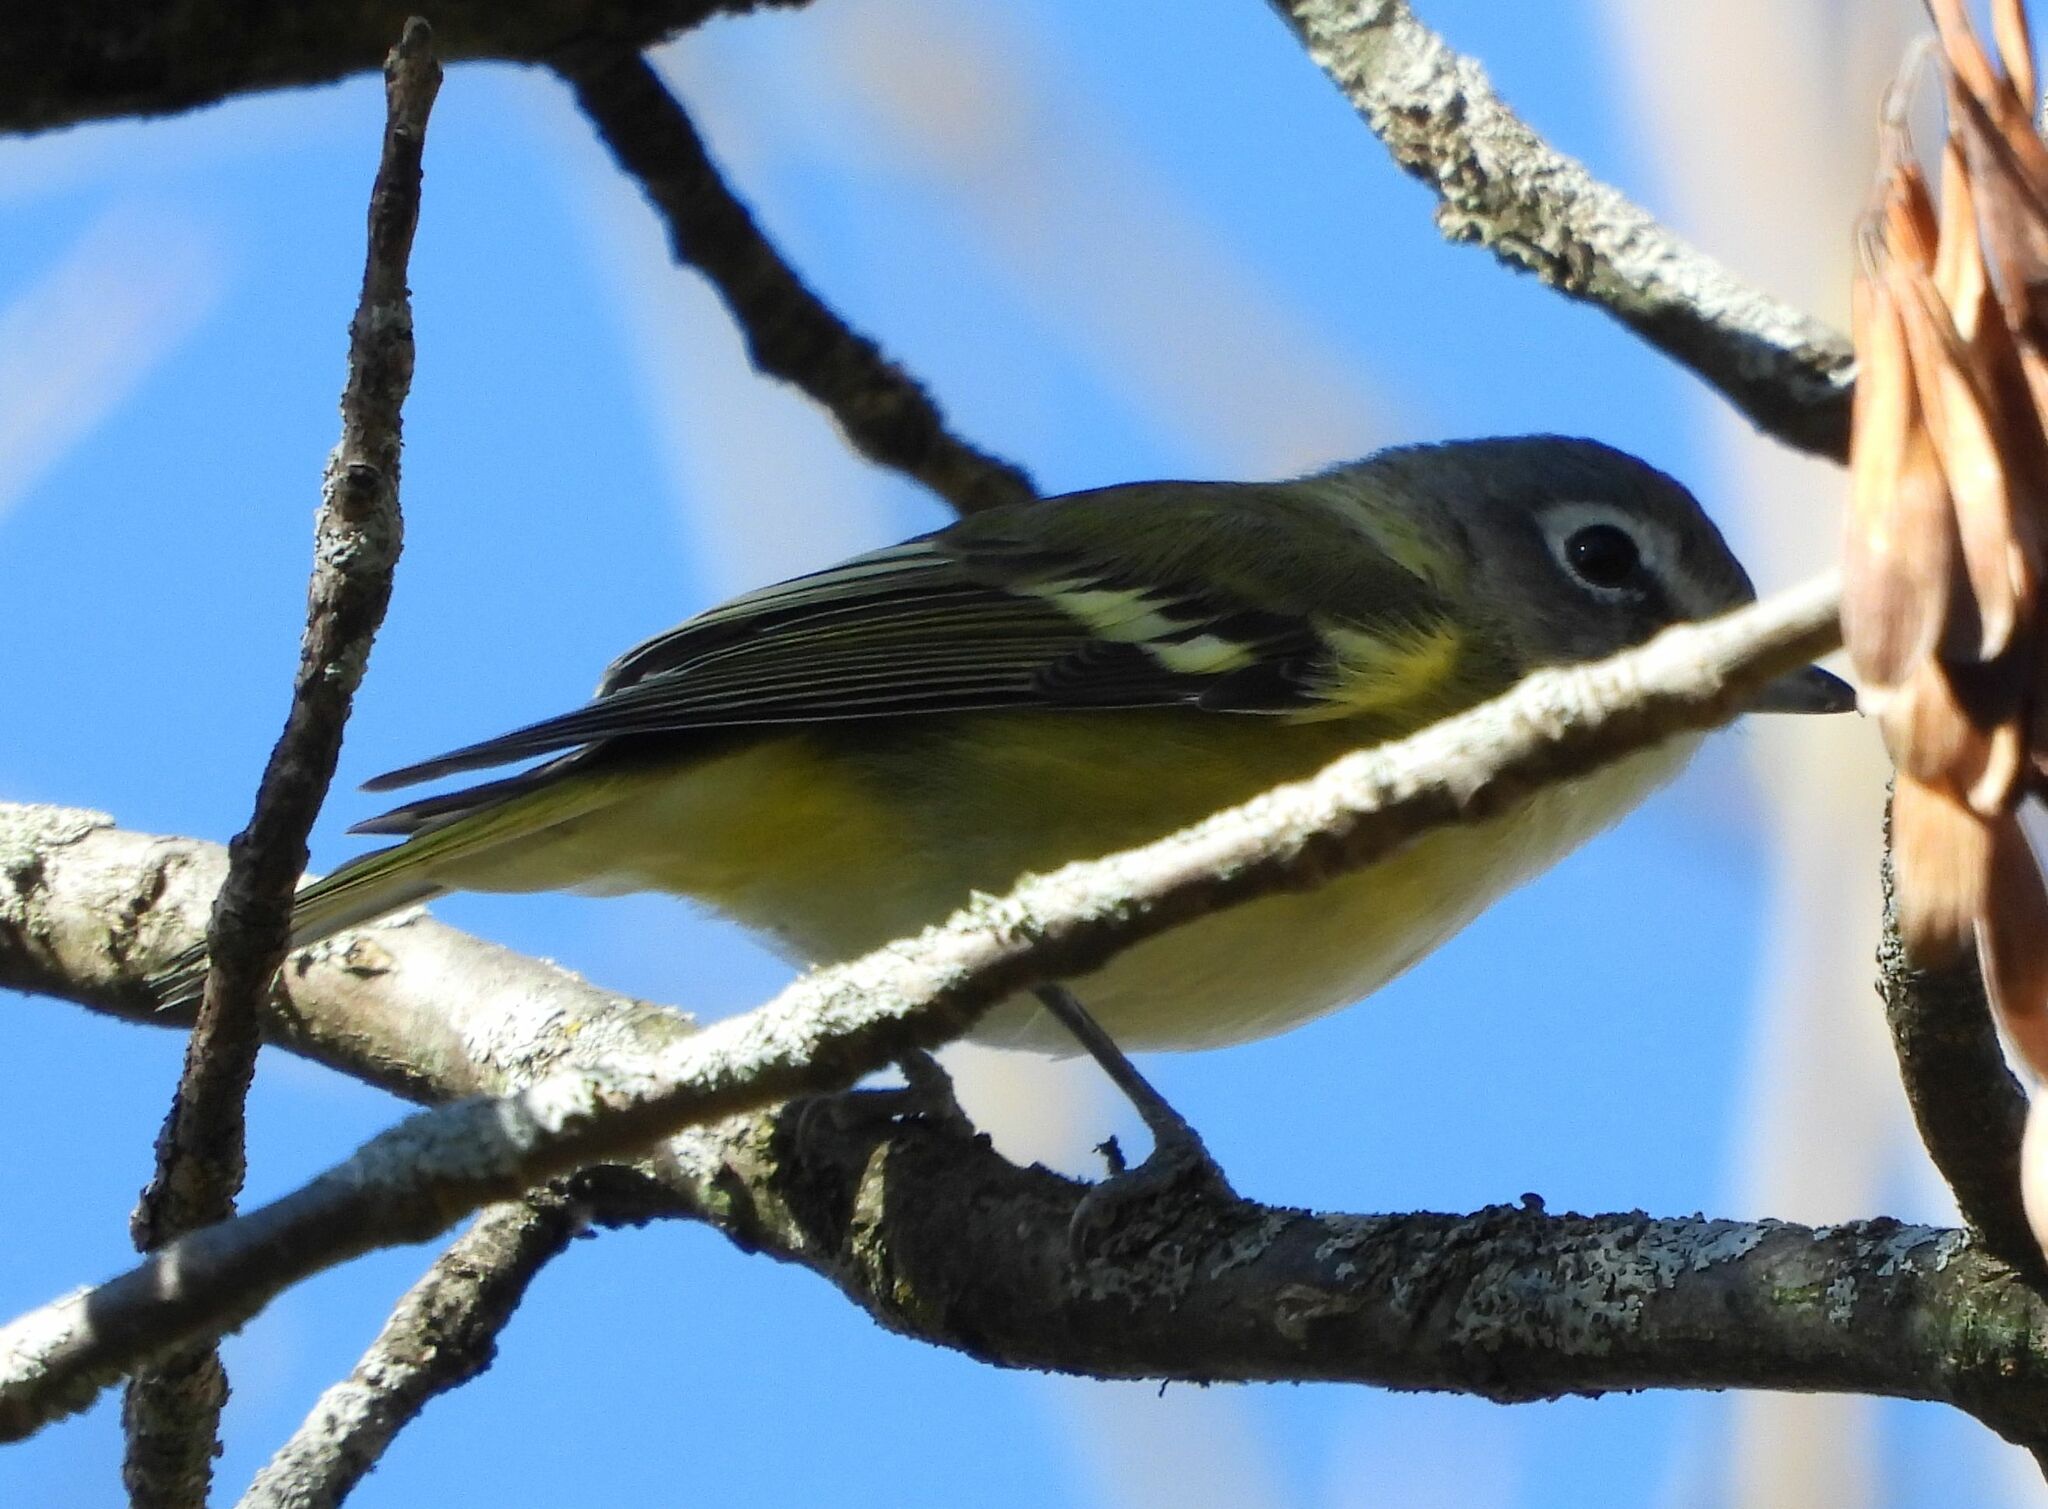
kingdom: Animalia
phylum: Chordata
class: Aves
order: Passeriformes
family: Vireonidae
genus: Vireo
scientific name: Vireo solitarius
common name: Blue-headed vireo
